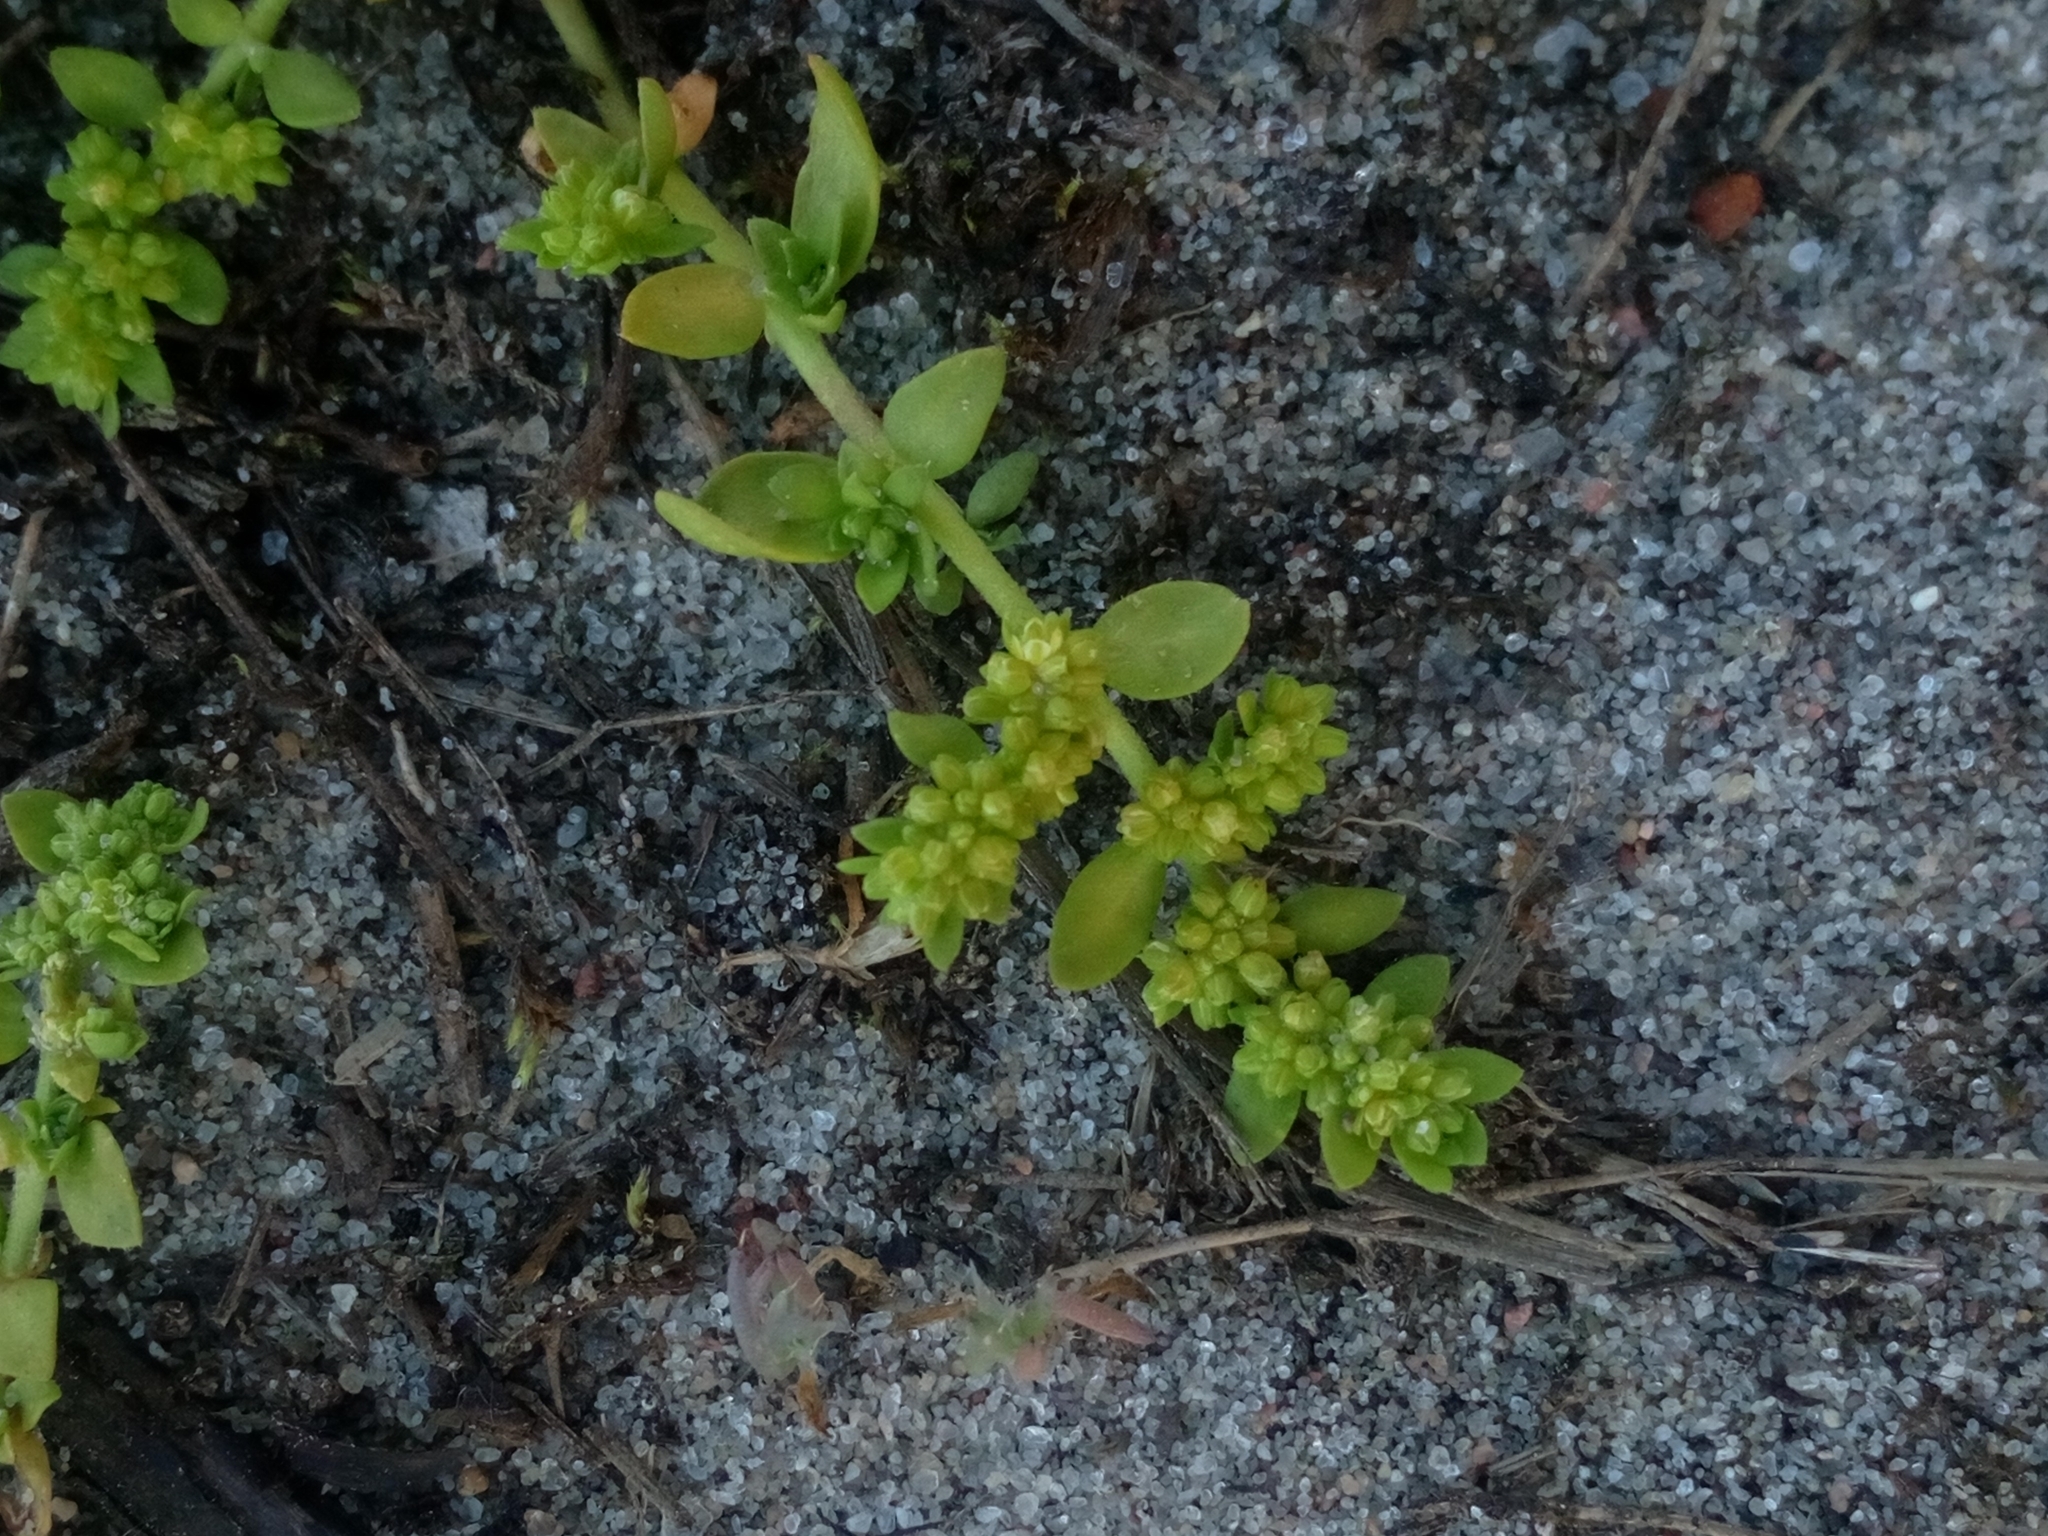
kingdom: Plantae
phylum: Tracheophyta
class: Magnoliopsida
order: Caryophyllales
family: Caryophyllaceae
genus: Herniaria
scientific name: Herniaria glabra
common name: Smooth rupturewort
